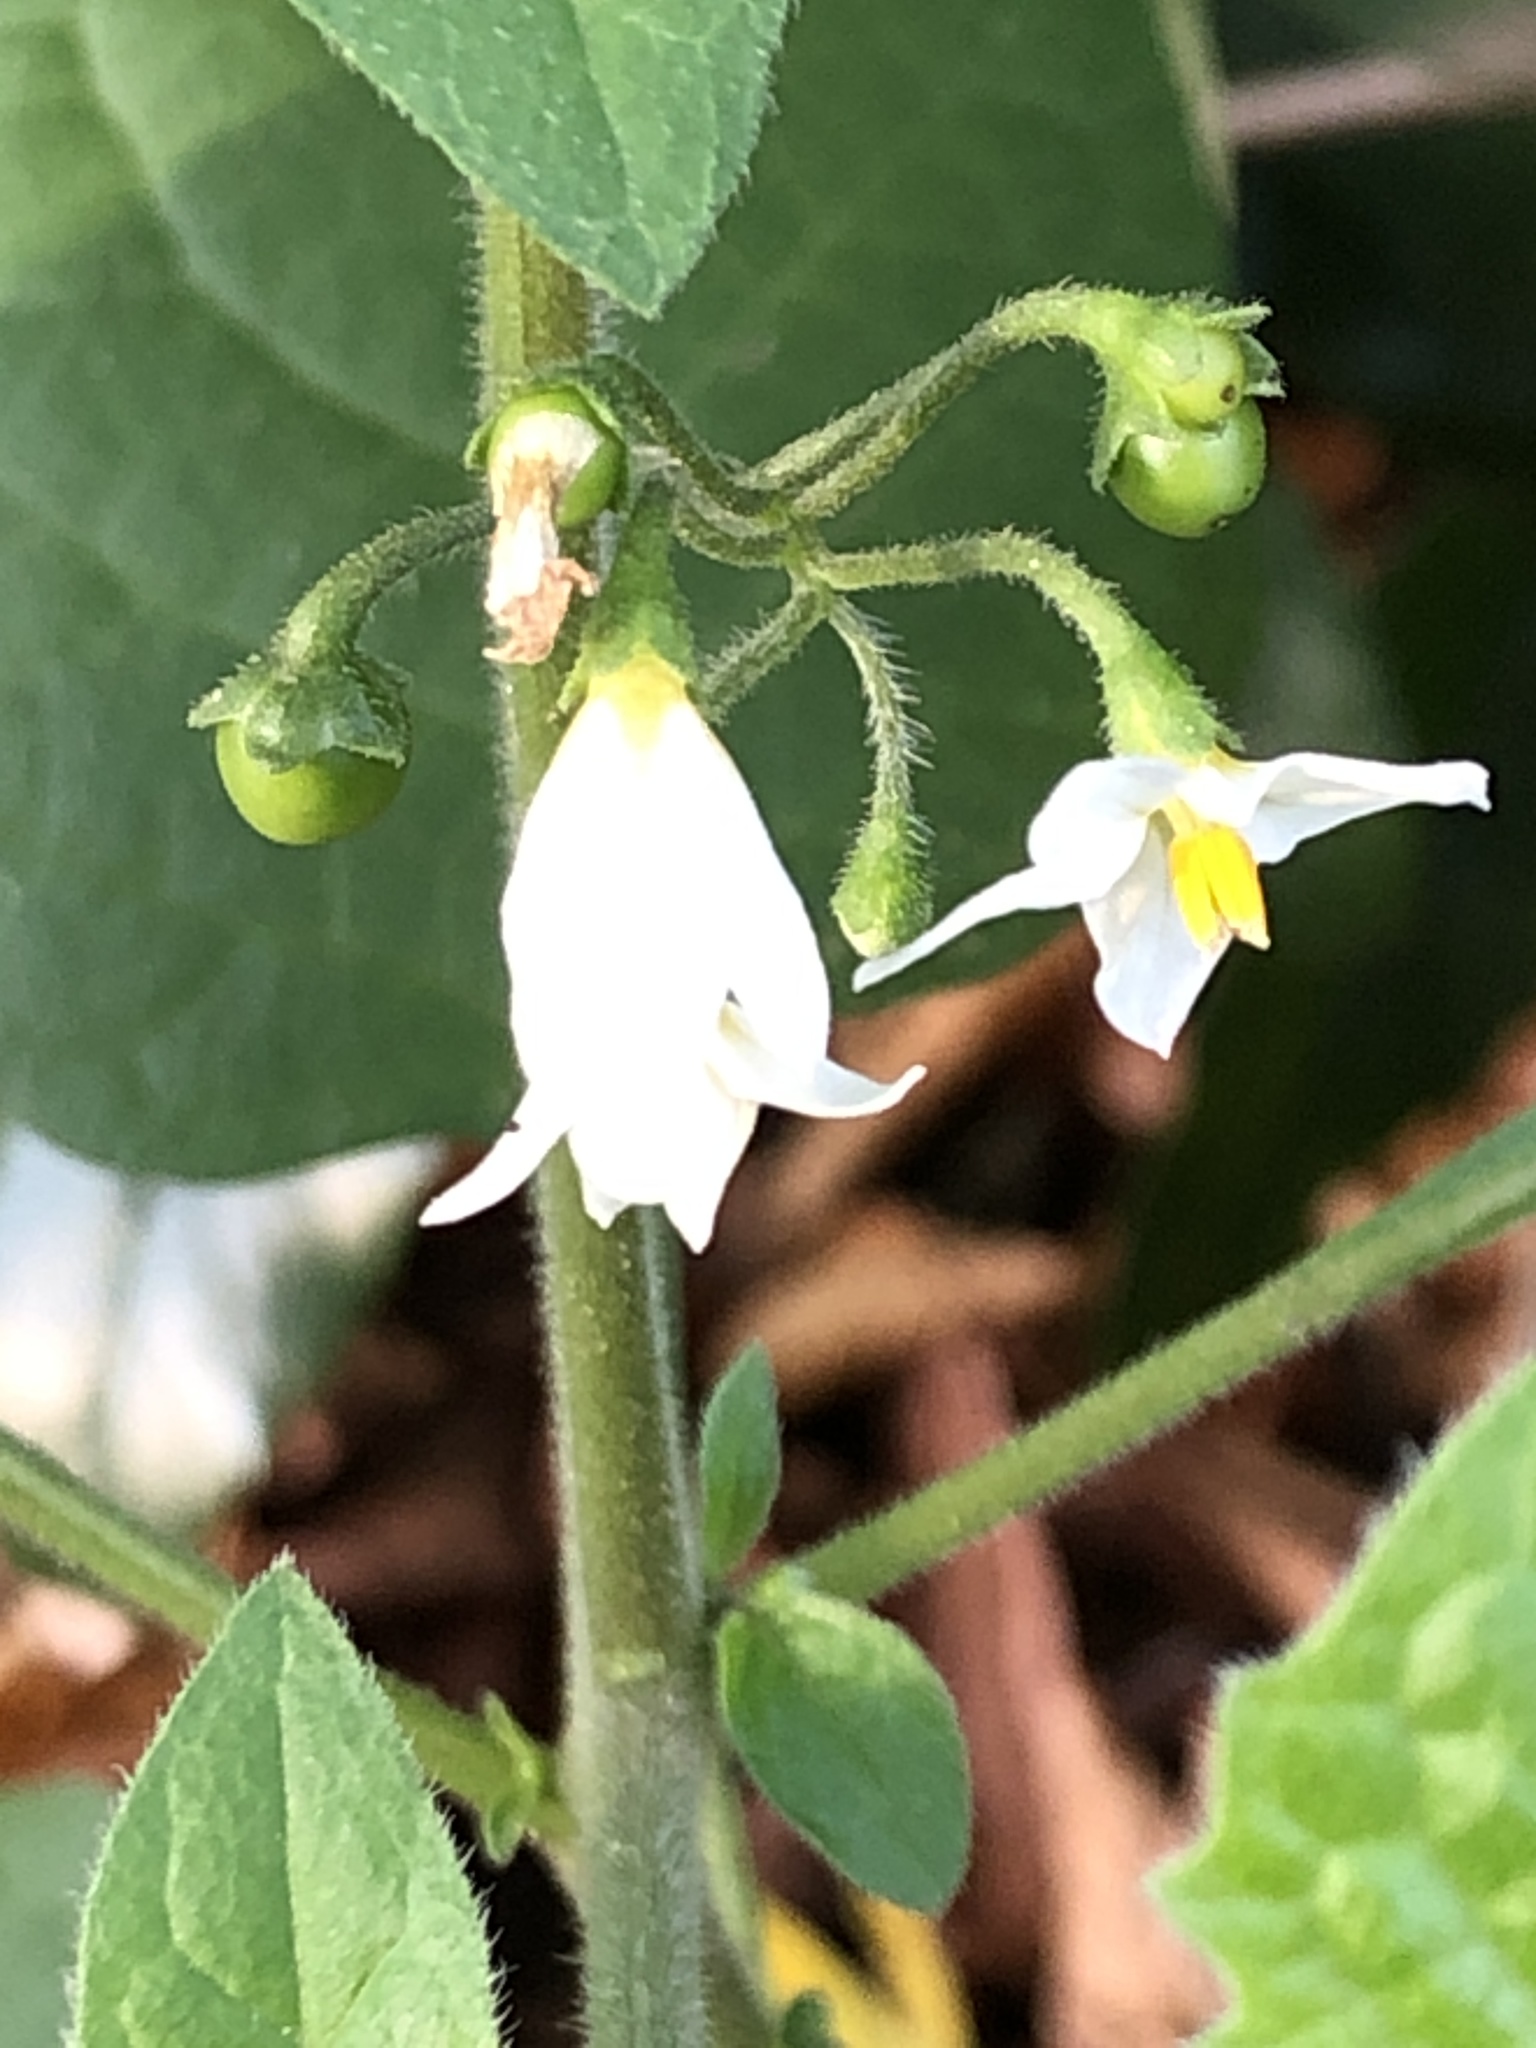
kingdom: Plantae
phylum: Tracheophyta
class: Magnoliopsida
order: Solanales
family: Solanaceae
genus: Solanum
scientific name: Solanum nigrum
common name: Black nightshade
